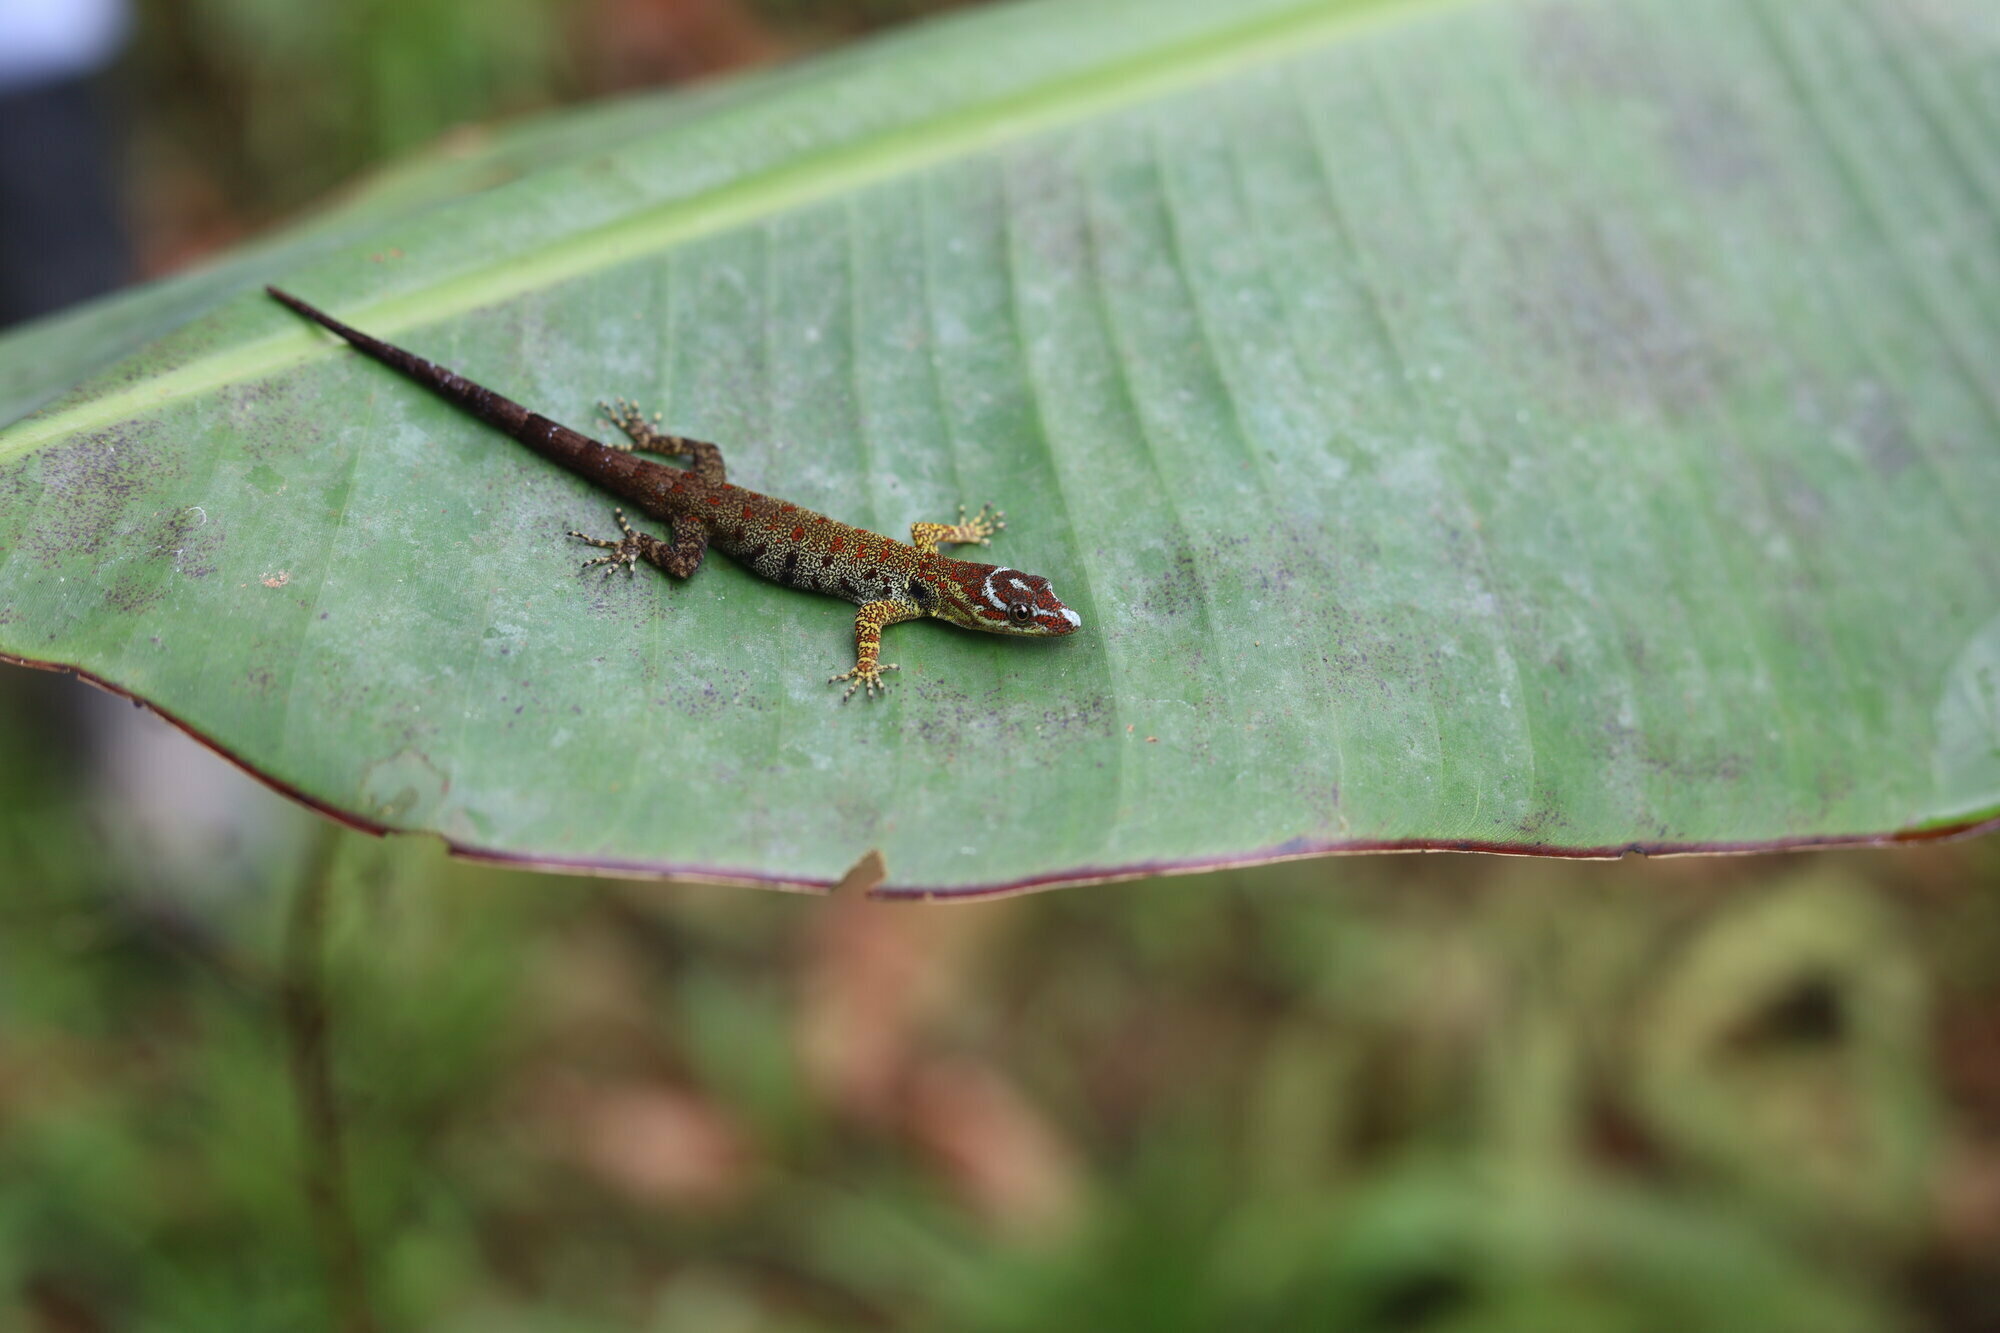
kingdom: Animalia
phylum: Chordata
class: Squamata
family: Sphaerodactylidae
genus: Gonatodes
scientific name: Gonatodes humeralis
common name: South american clawed gecko
